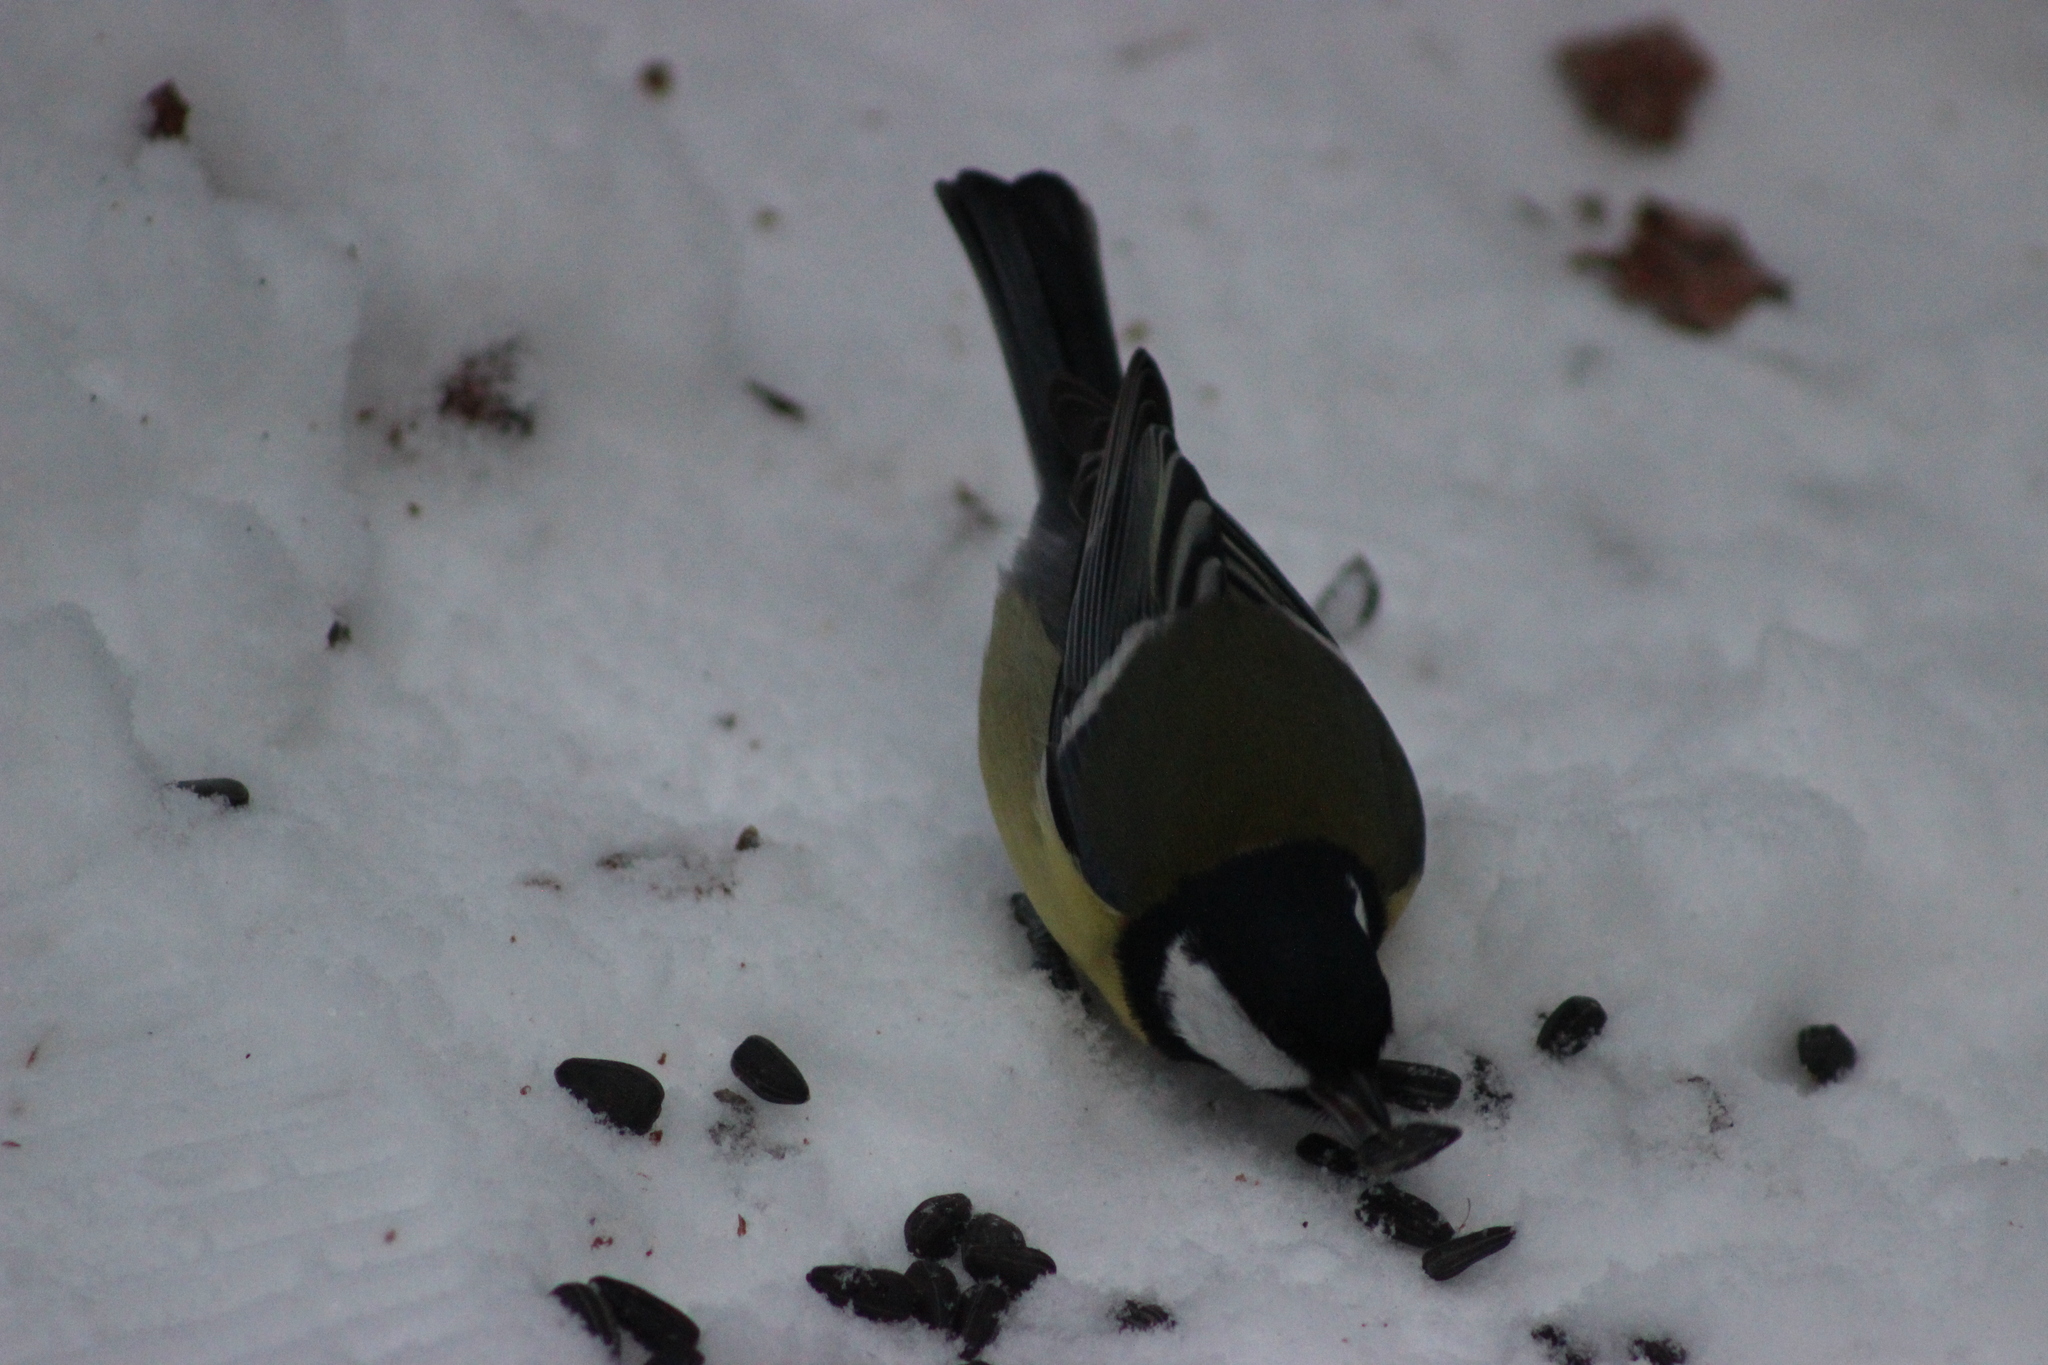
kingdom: Animalia
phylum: Chordata
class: Aves
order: Passeriformes
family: Paridae
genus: Parus
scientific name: Parus major
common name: Great tit
